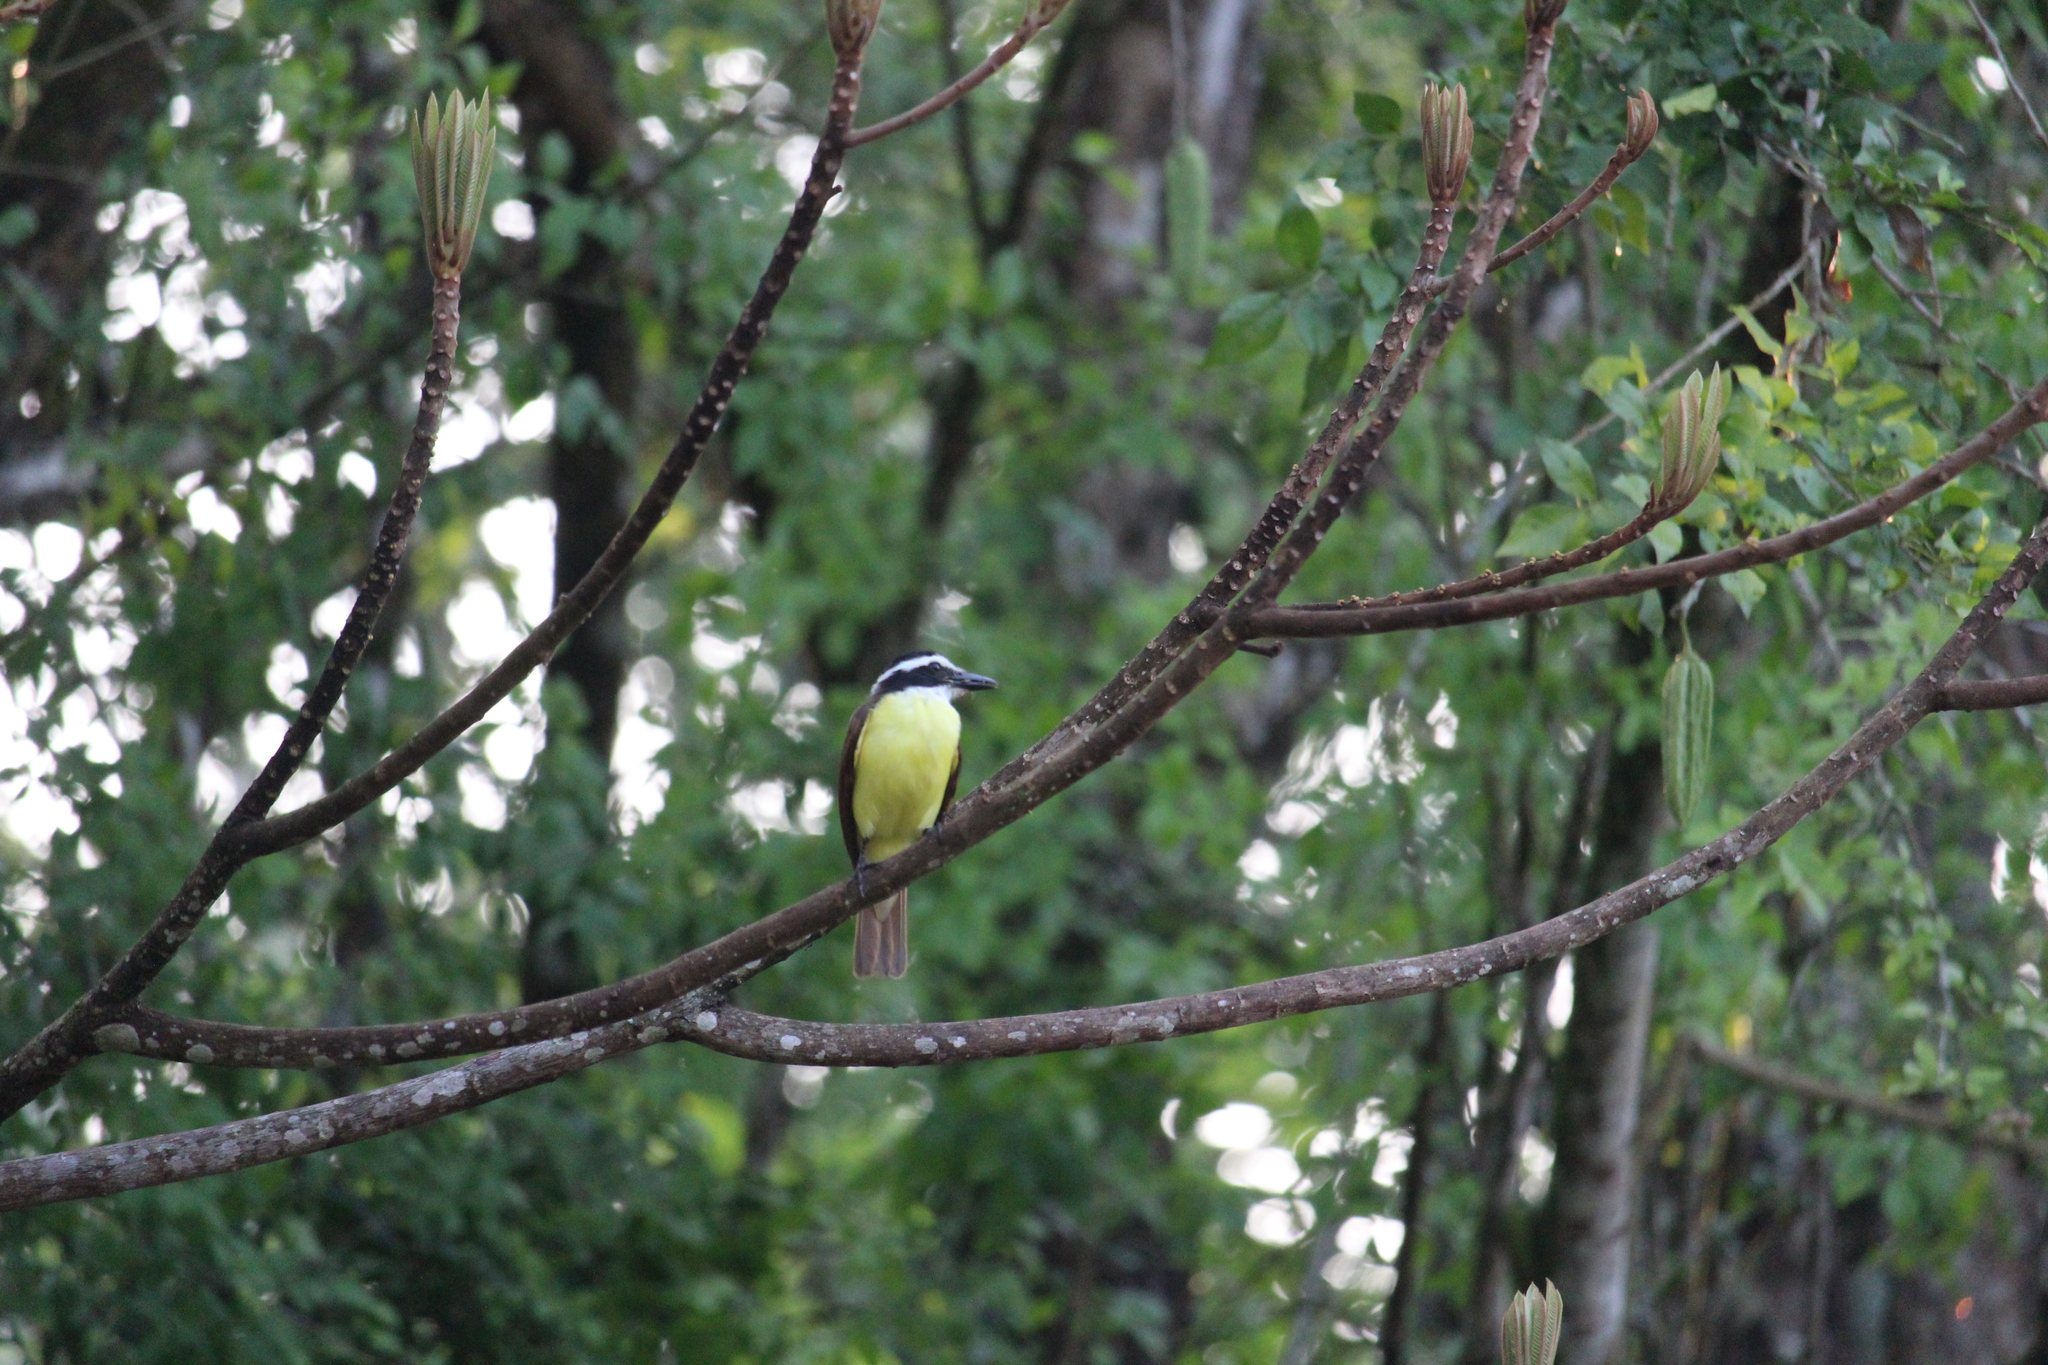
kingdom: Animalia
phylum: Chordata
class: Aves
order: Passeriformes
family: Tyrannidae
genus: Pitangus
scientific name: Pitangus sulphuratus
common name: Great kiskadee
